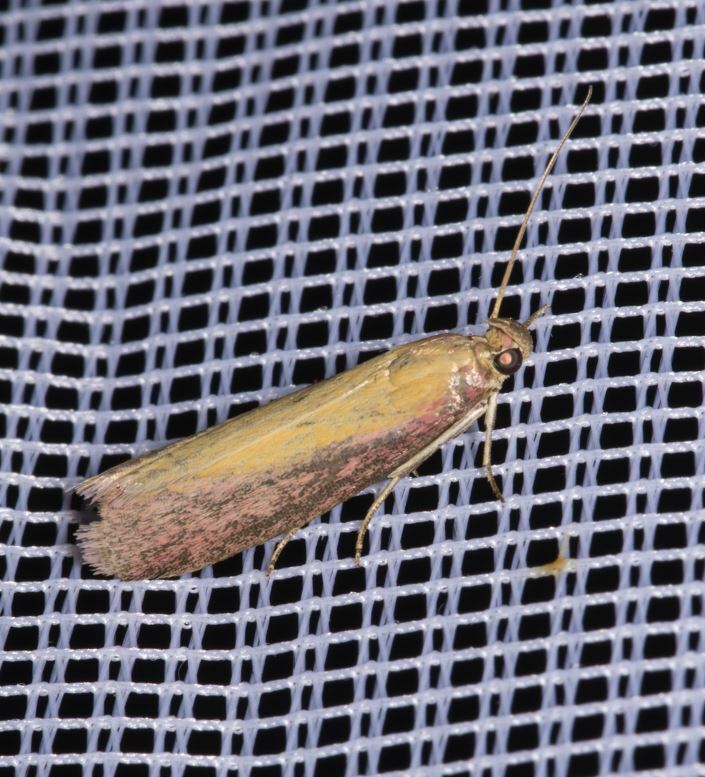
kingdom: Animalia
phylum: Arthropoda
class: Insecta
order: Lepidoptera
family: Pyralidae
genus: Oncocera
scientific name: Oncocera semirubella
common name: Rosy-striped knot-horn
